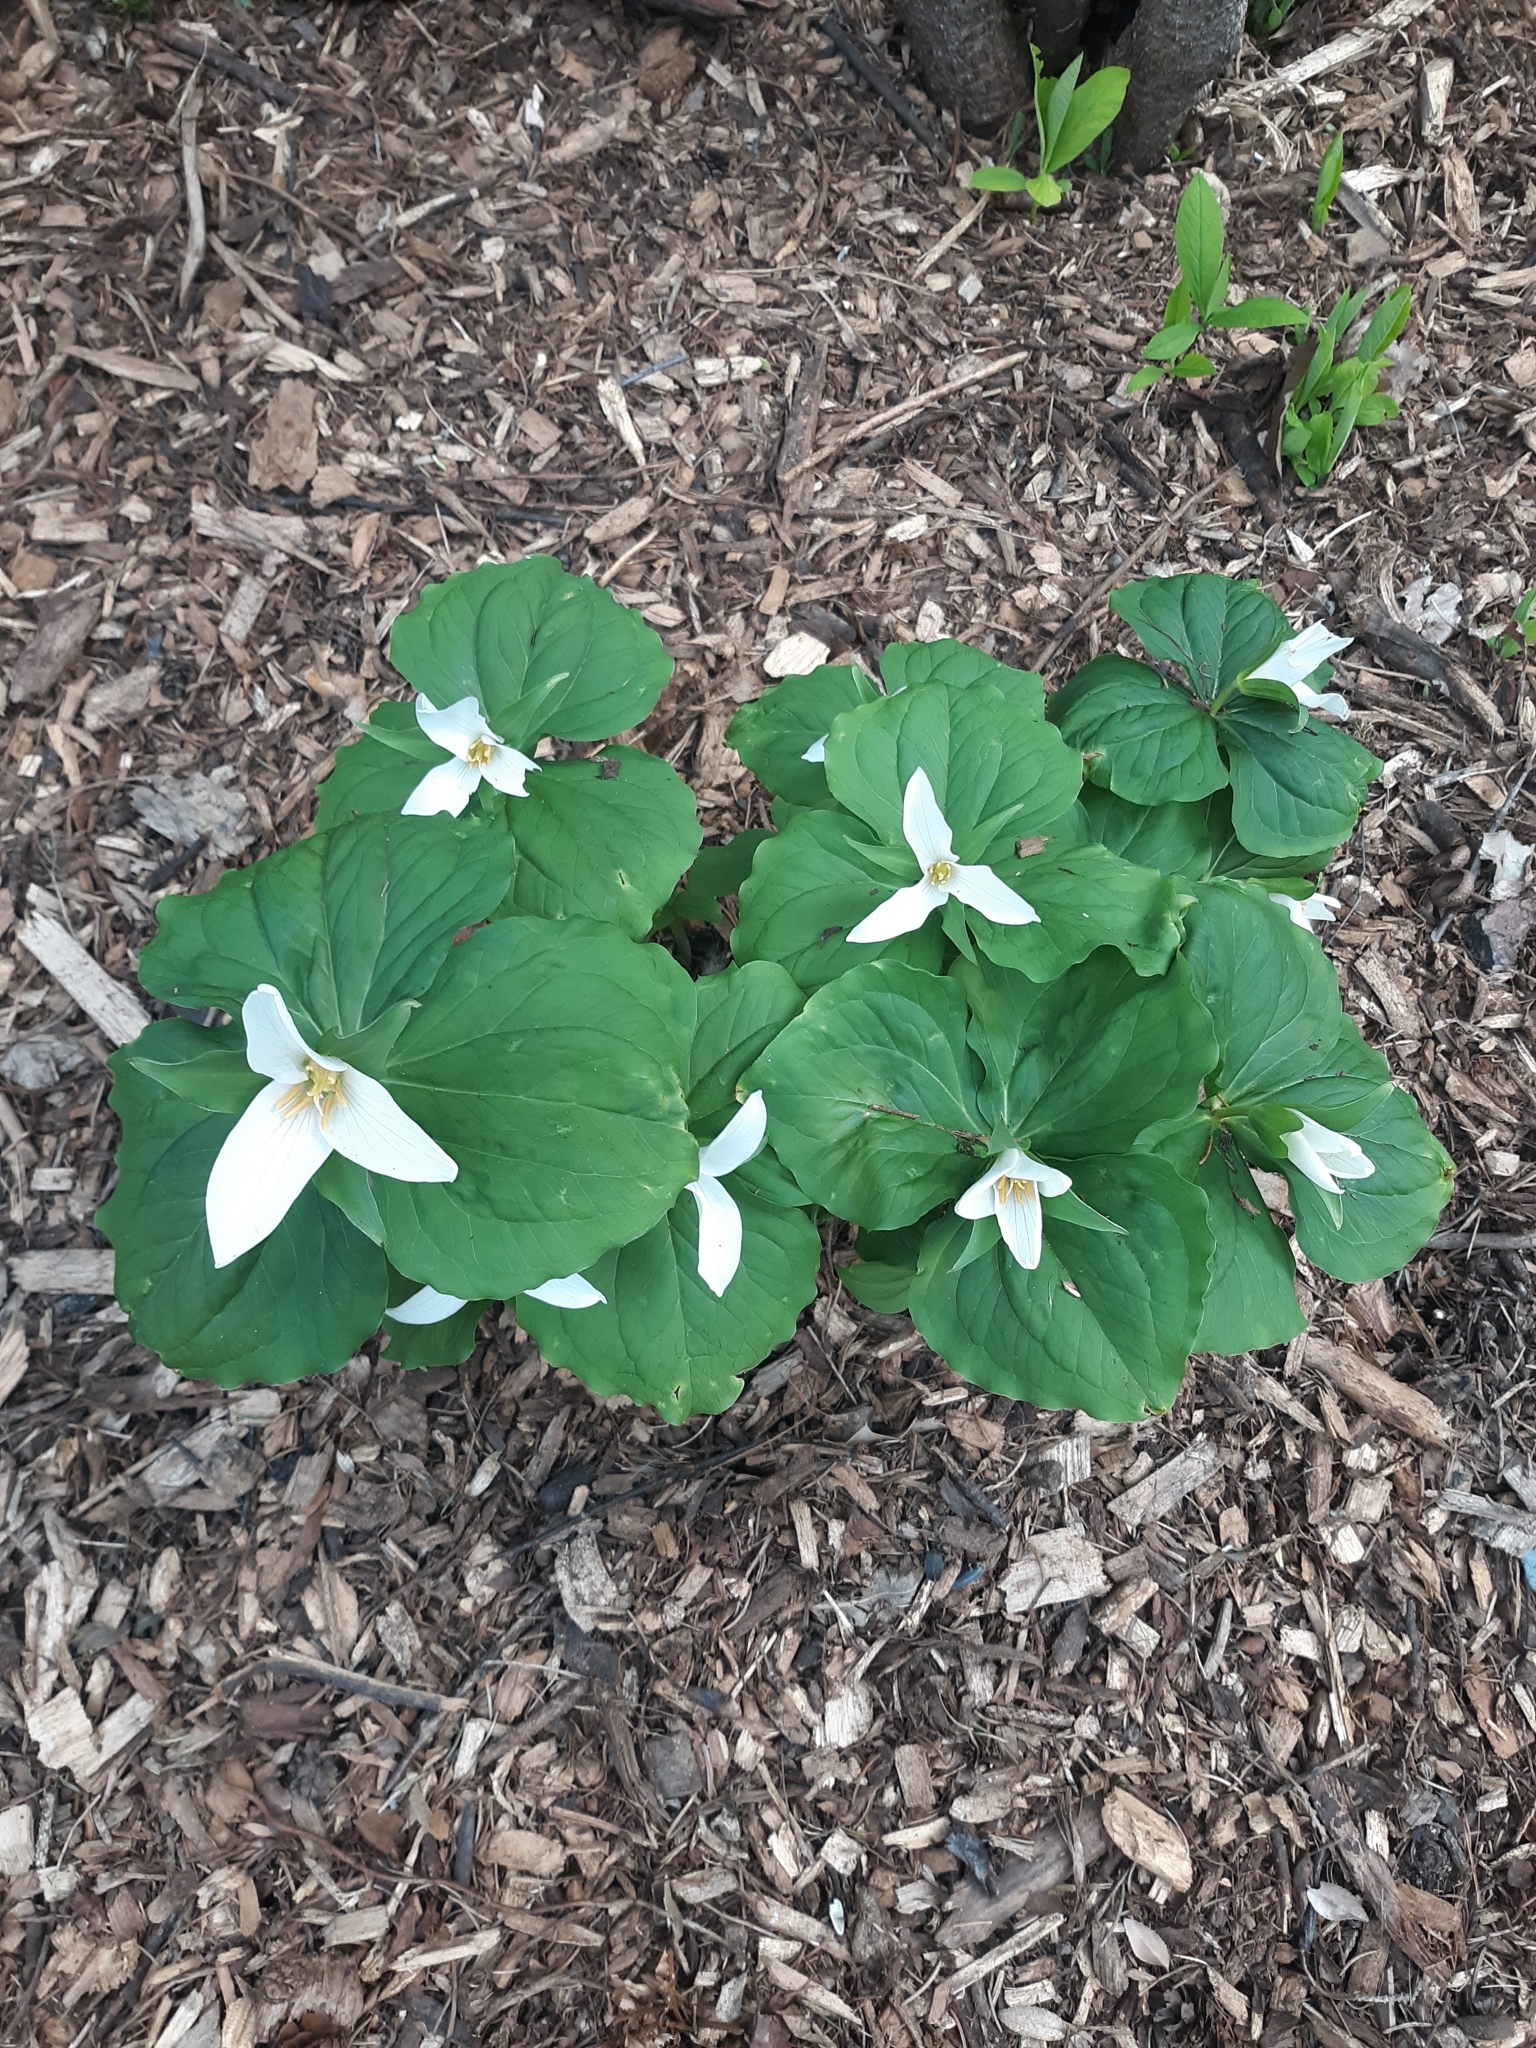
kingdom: Plantae
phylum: Tracheophyta
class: Liliopsida
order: Liliales
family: Melanthiaceae
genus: Trillium
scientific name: Trillium ovatum
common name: Pacific trillium
